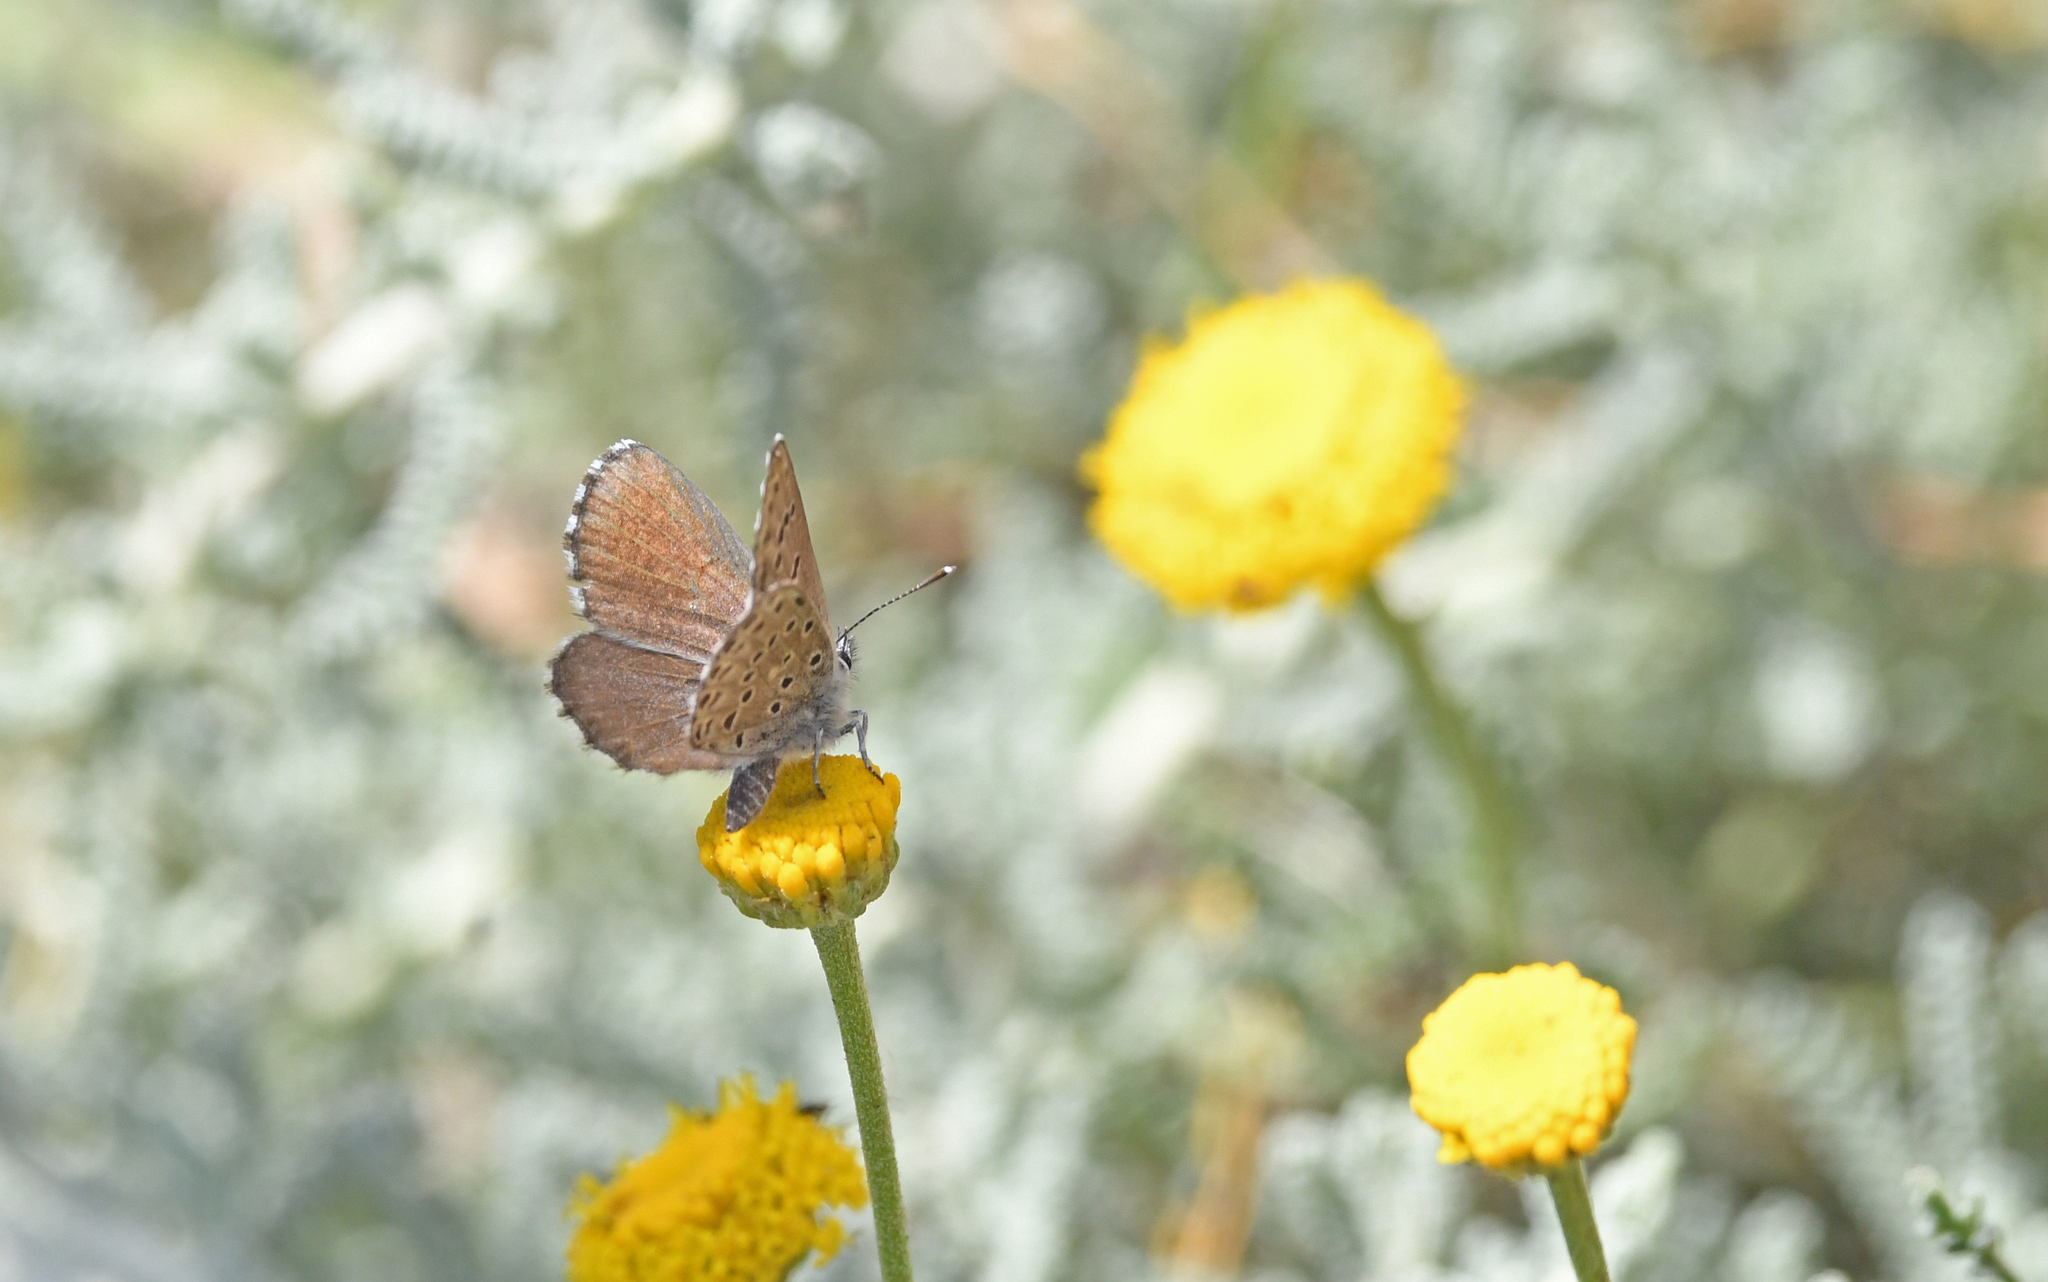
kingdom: Animalia
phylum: Arthropoda
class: Insecta
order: Lepidoptera
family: Lycaenidae
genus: Pseudophilotes
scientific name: Pseudophilotes barbagiae
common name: Sardinian blue
